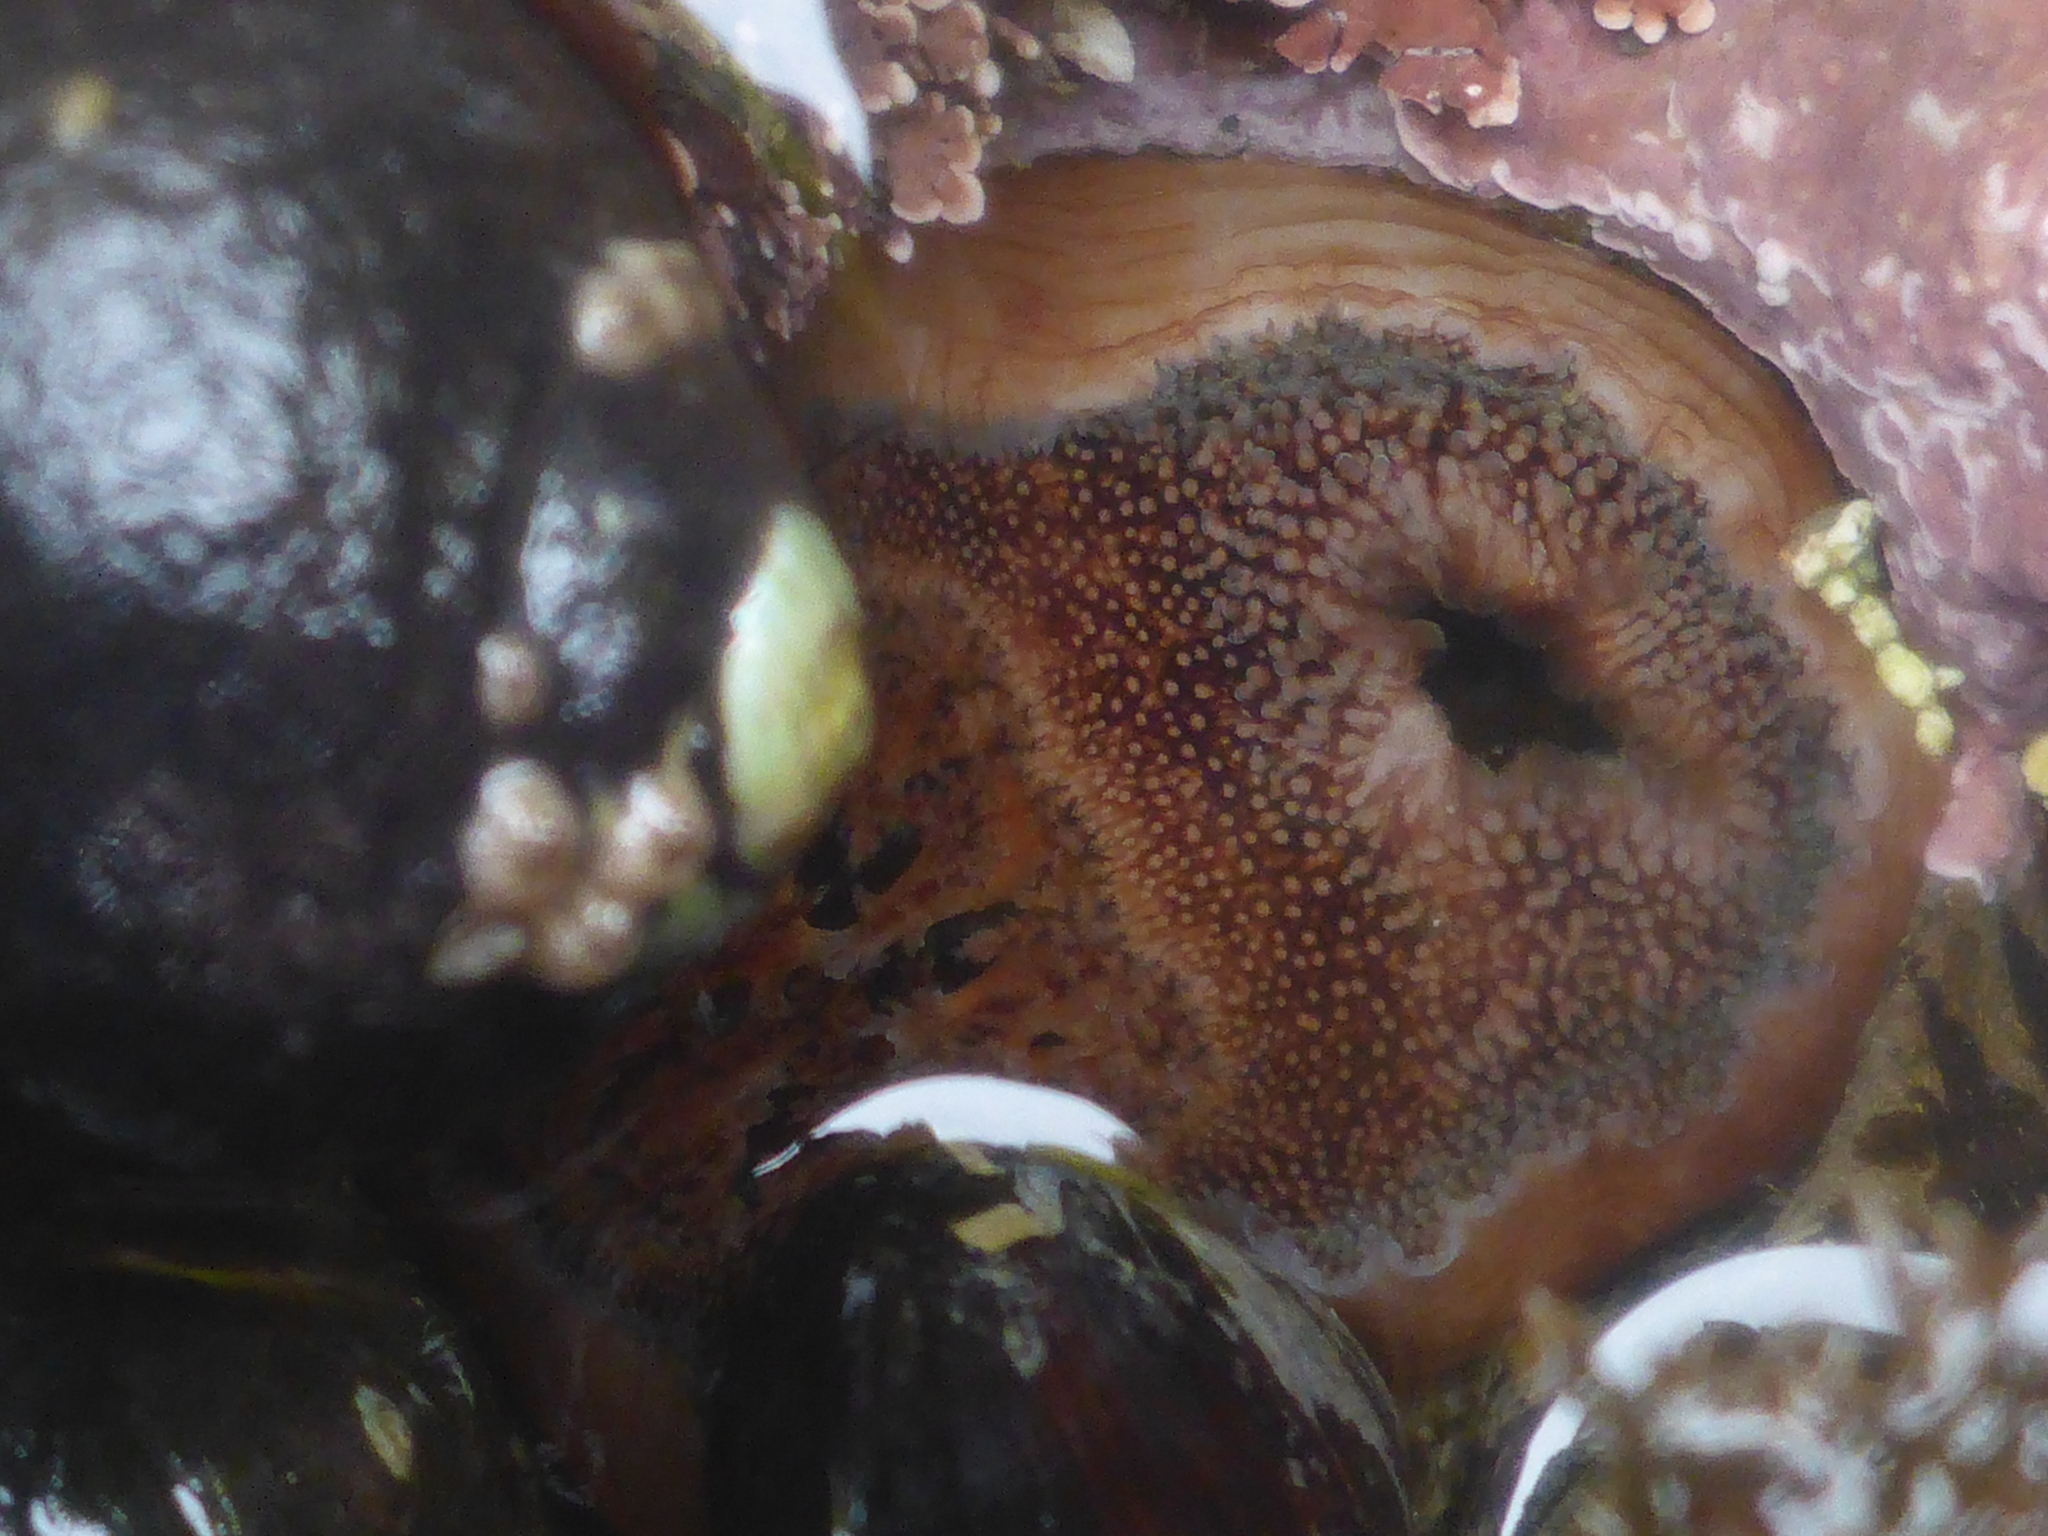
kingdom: Animalia
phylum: Mollusca
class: Bivalvia
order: Myida
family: Pholadidae
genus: Parapholas
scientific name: Parapholas californica
